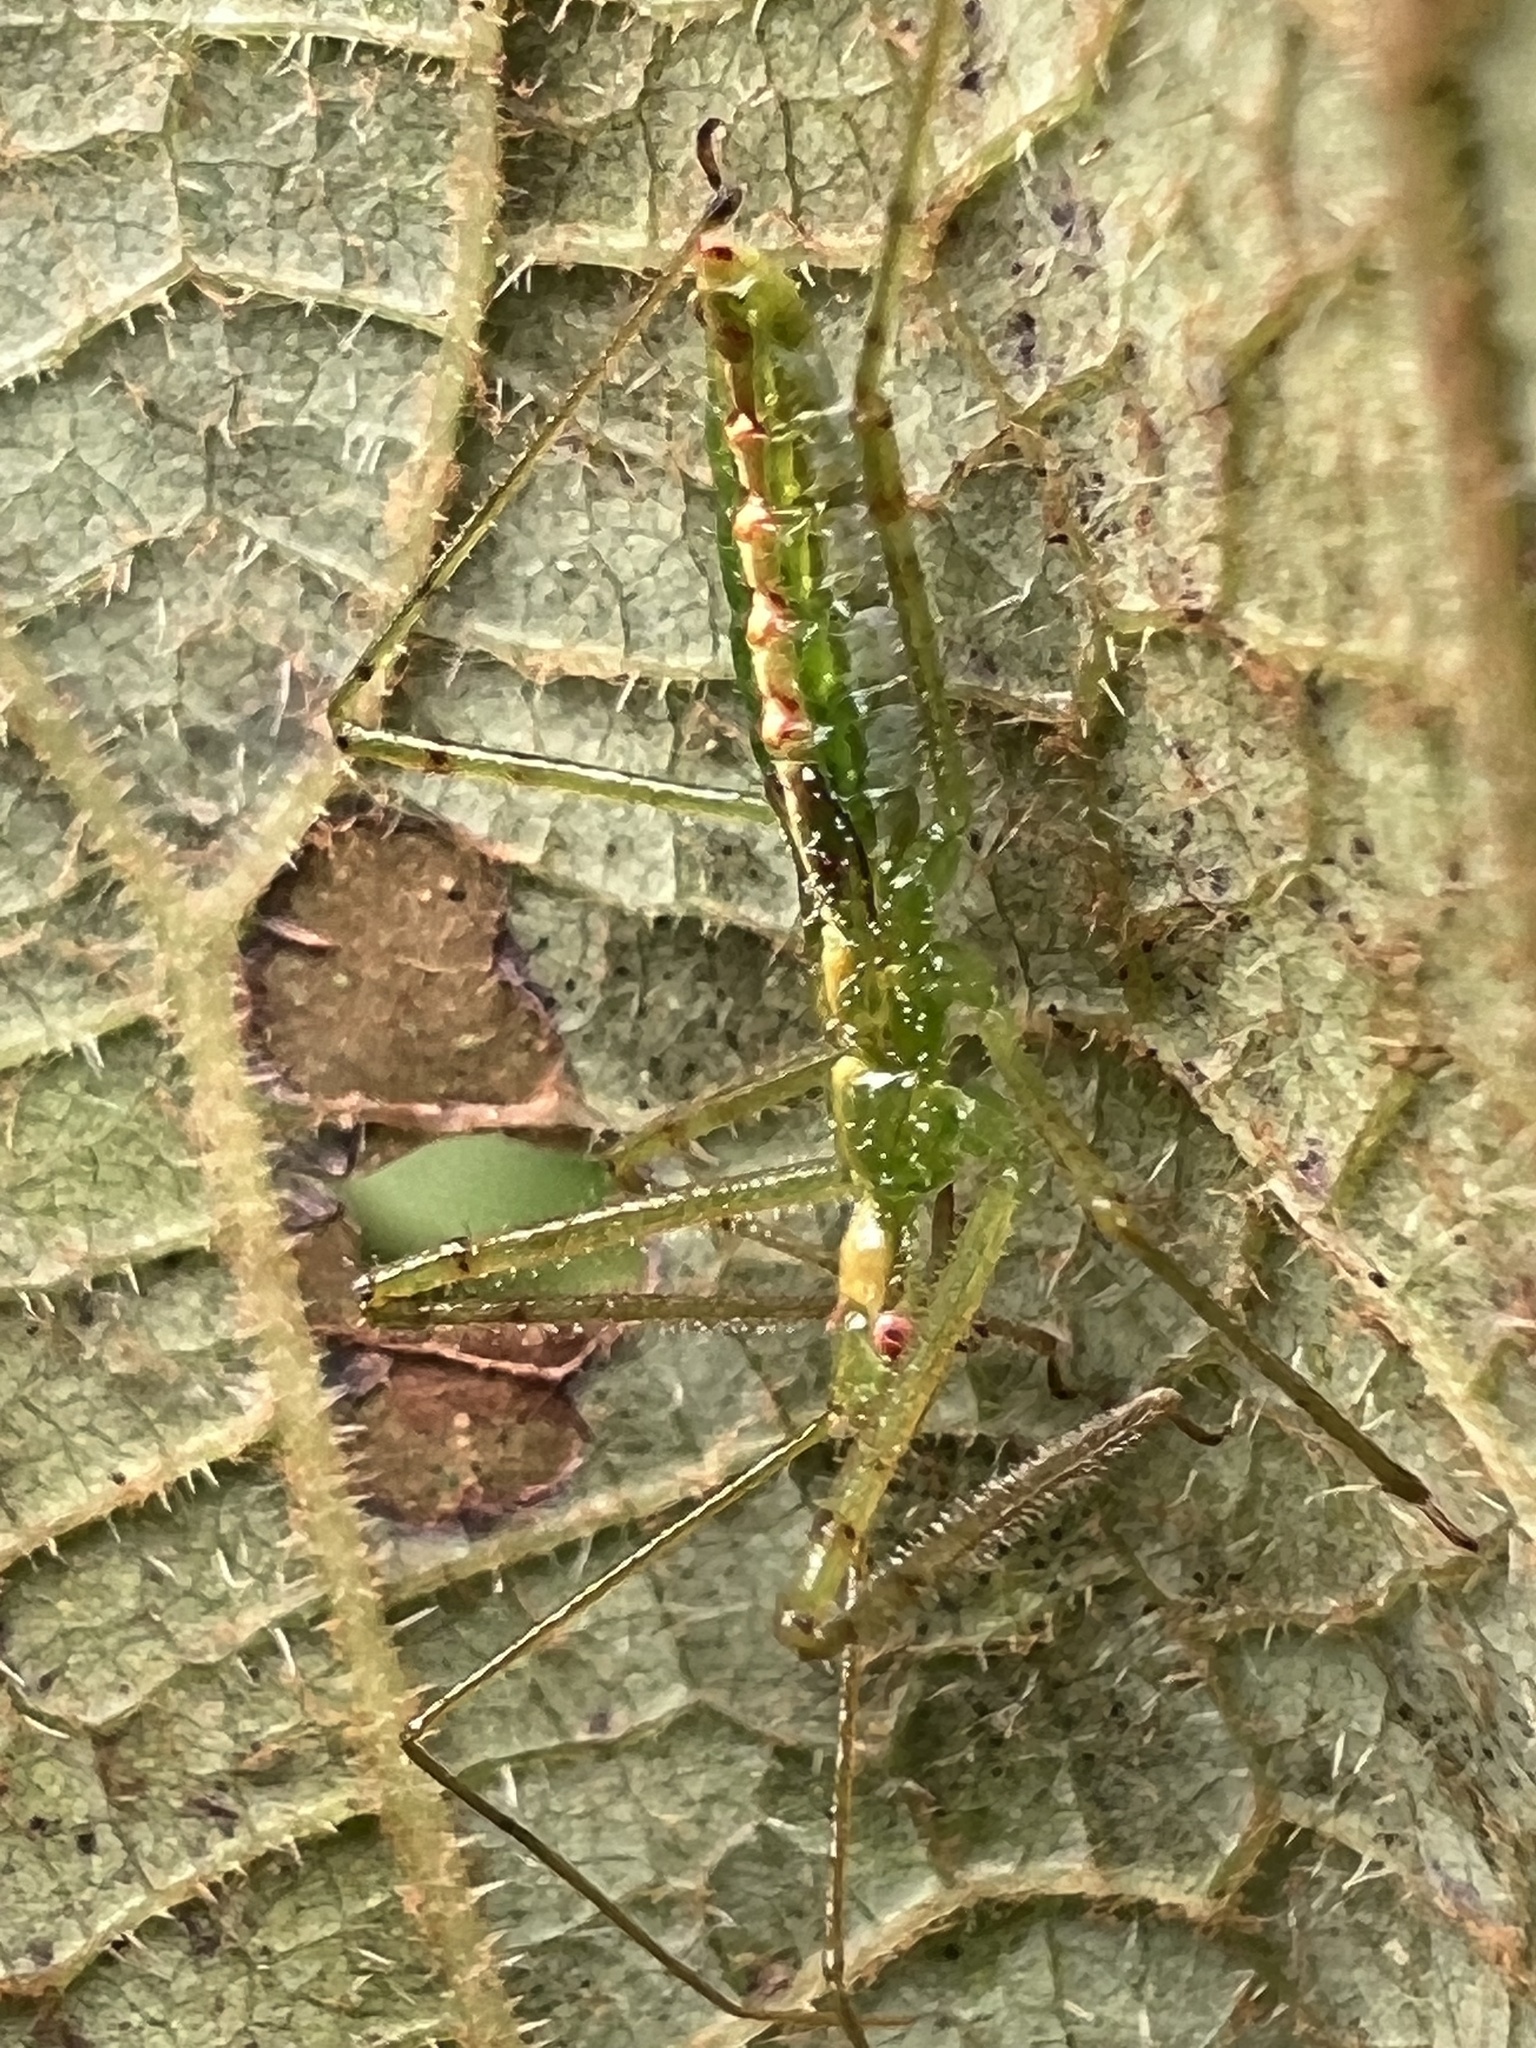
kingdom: Animalia
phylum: Arthropoda
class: Insecta
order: Hemiptera
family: Reduviidae
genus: Zelus
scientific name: Zelus luridus
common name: Pale green assassin bug
